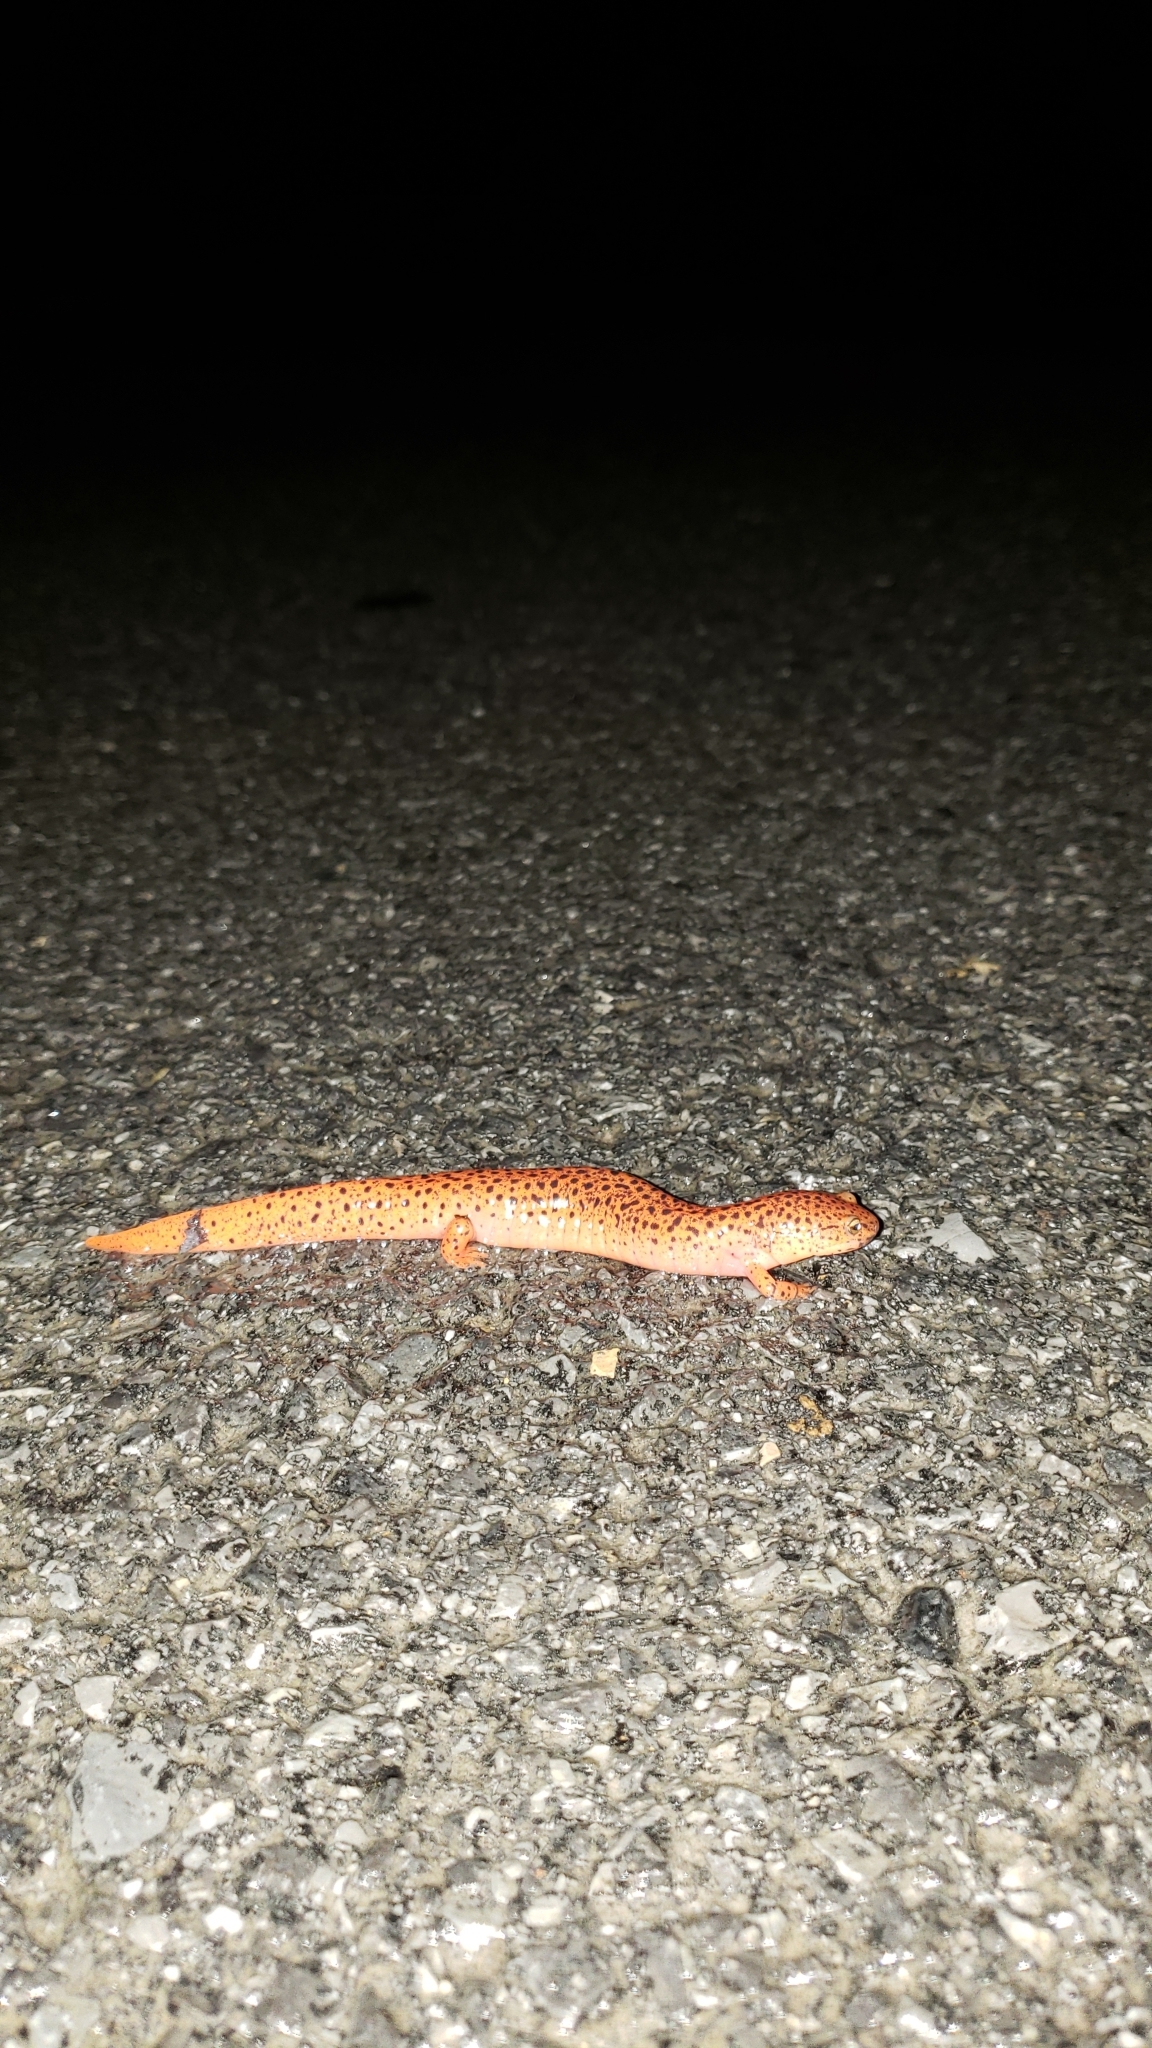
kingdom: Animalia
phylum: Chordata
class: Amphibia
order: Caudata
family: Plethodontidae
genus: Pseudotriton
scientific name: Pseudotriton ruber
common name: Red salamander
